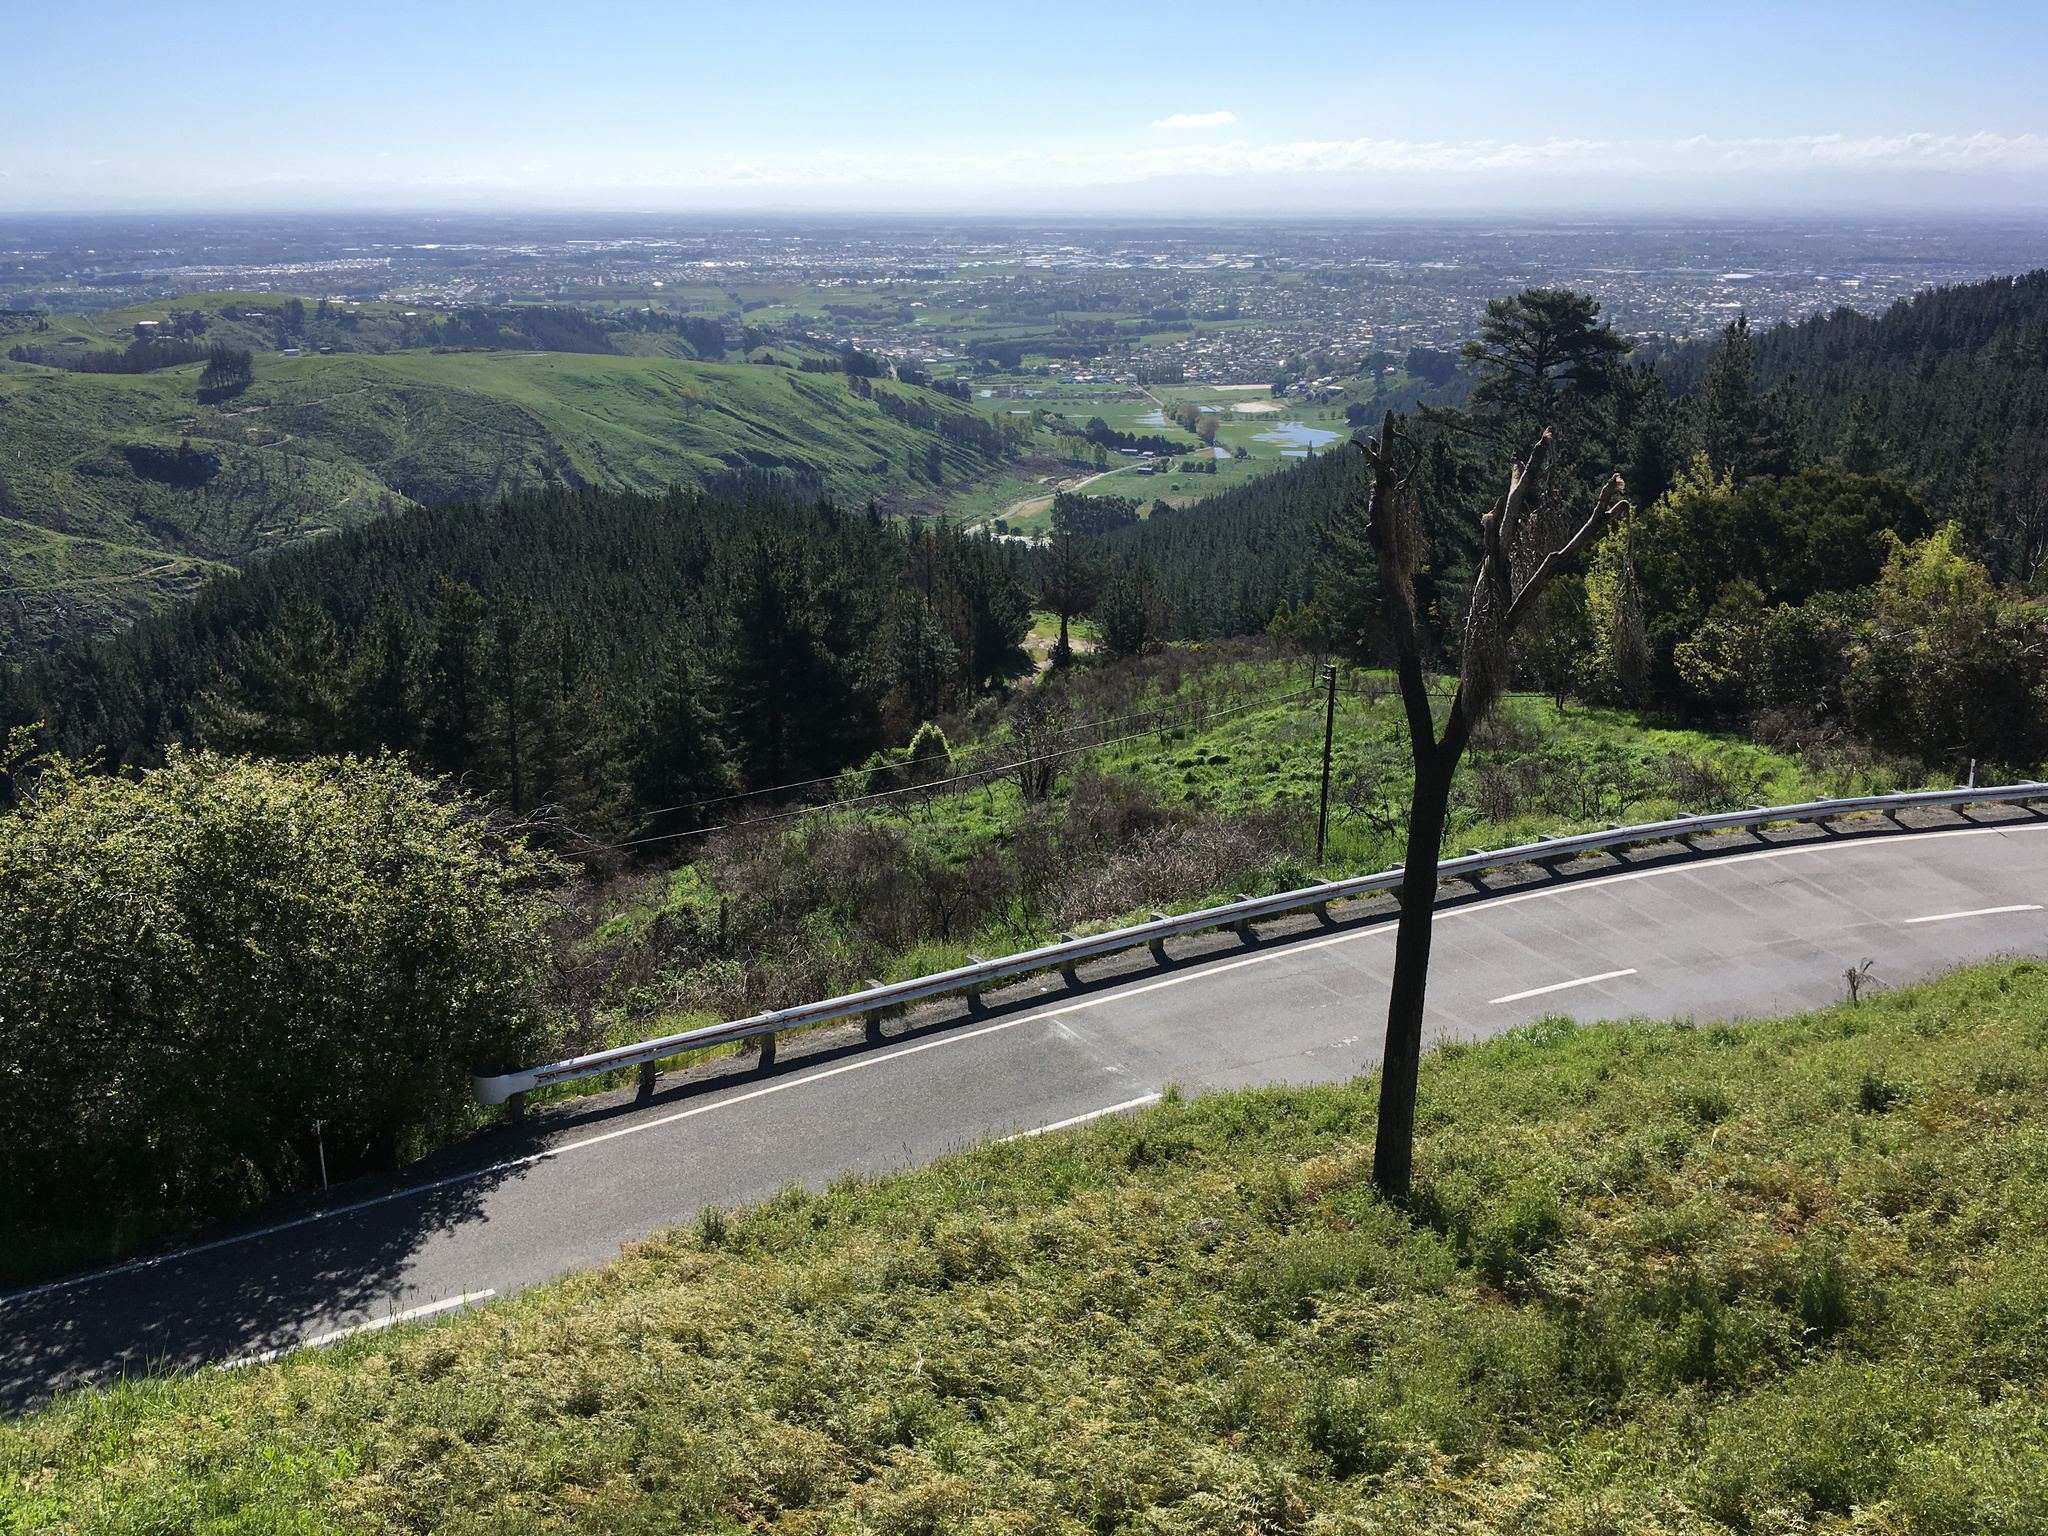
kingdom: Plantae
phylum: Tracheophyta
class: Liliopsida
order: Asparagales
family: Asparagaceae
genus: Cordyline
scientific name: Cordyline australis
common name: Cabbage-palm
